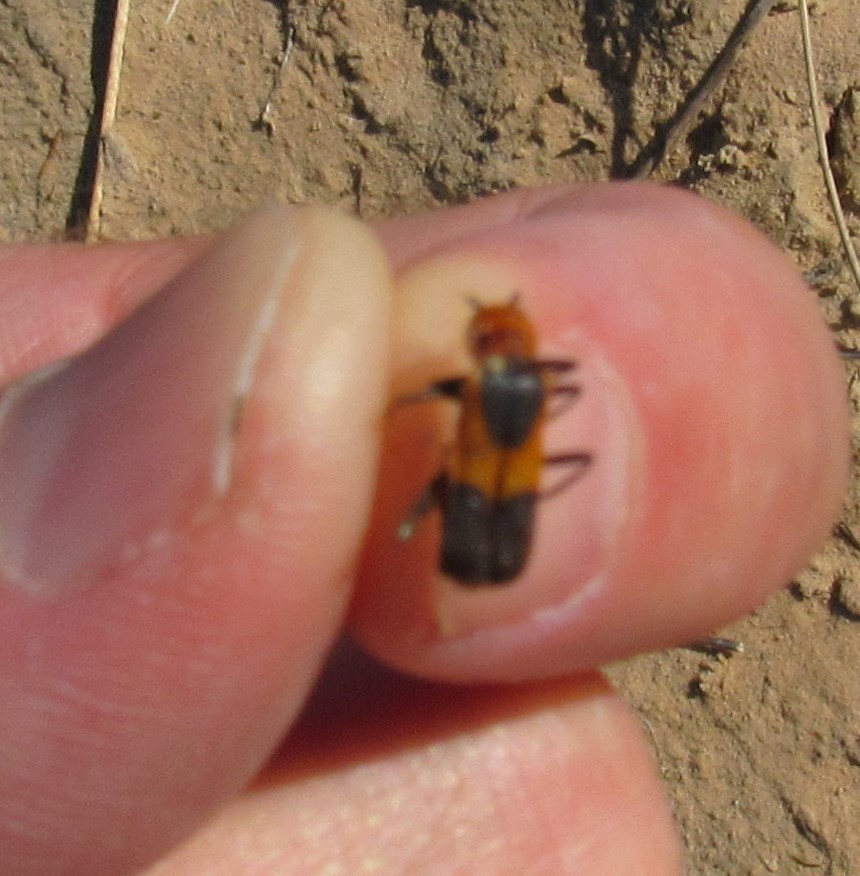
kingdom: Animalia
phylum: Arthropoda
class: Insecta
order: Coleoptera
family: Cantharidae
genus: Chauliognathus
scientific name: Chauliognathus basalis
